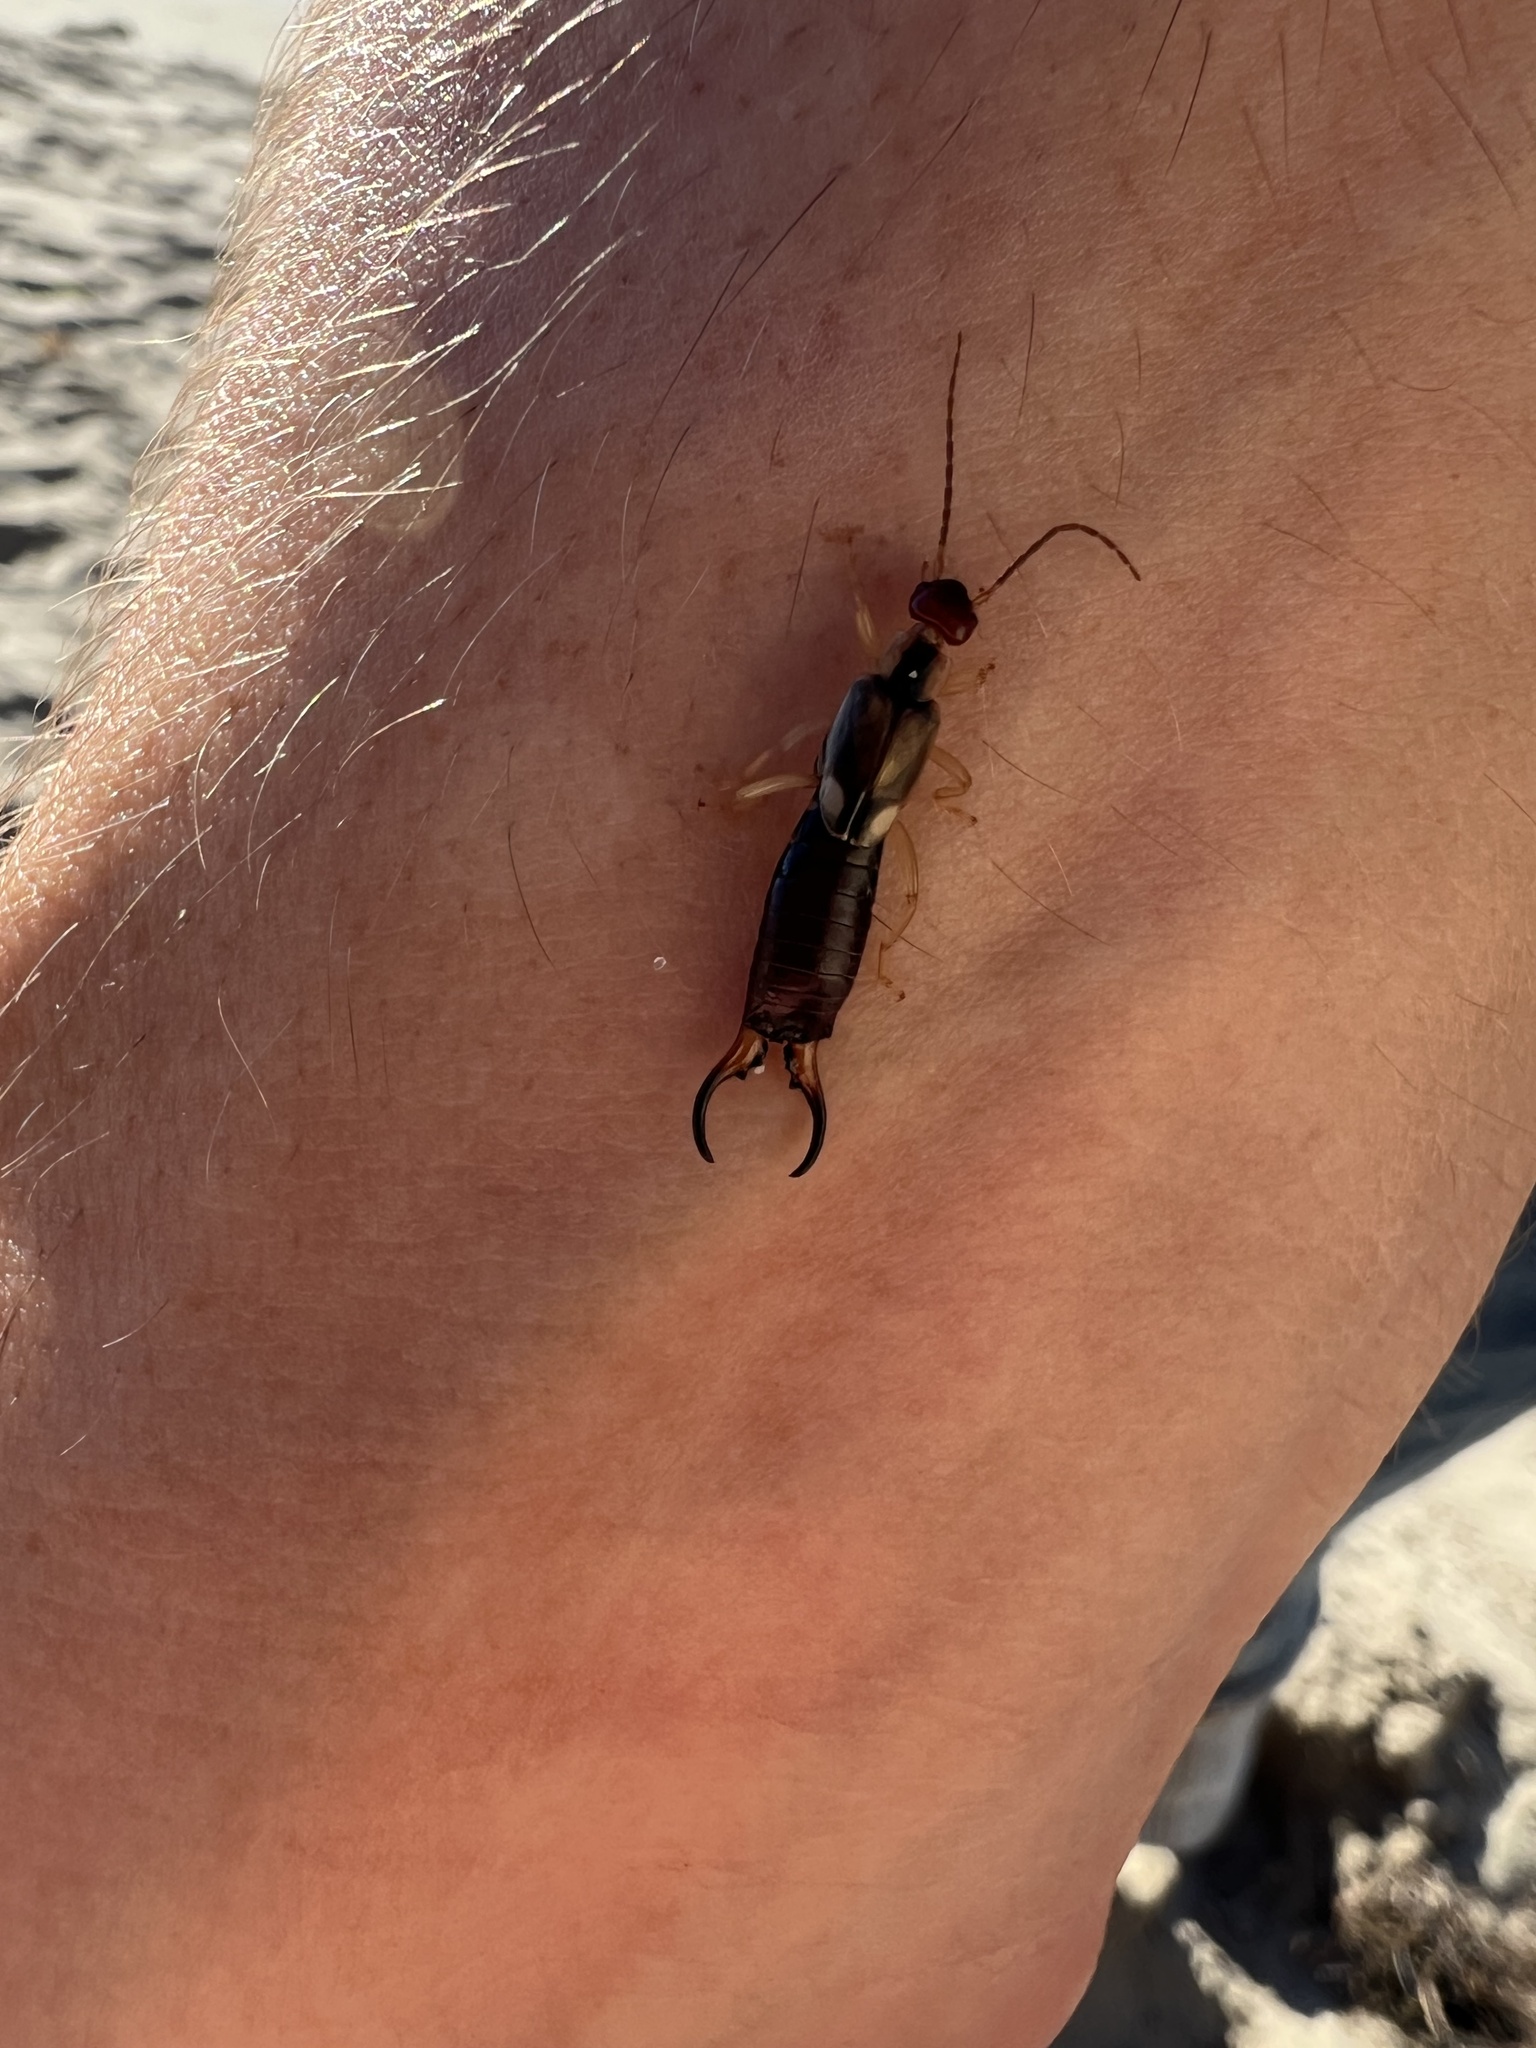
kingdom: Animalia
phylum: Arthropoda
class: Insecta
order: Dermaptera
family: Forficulidae
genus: Forficula
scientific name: Forficula dentata
